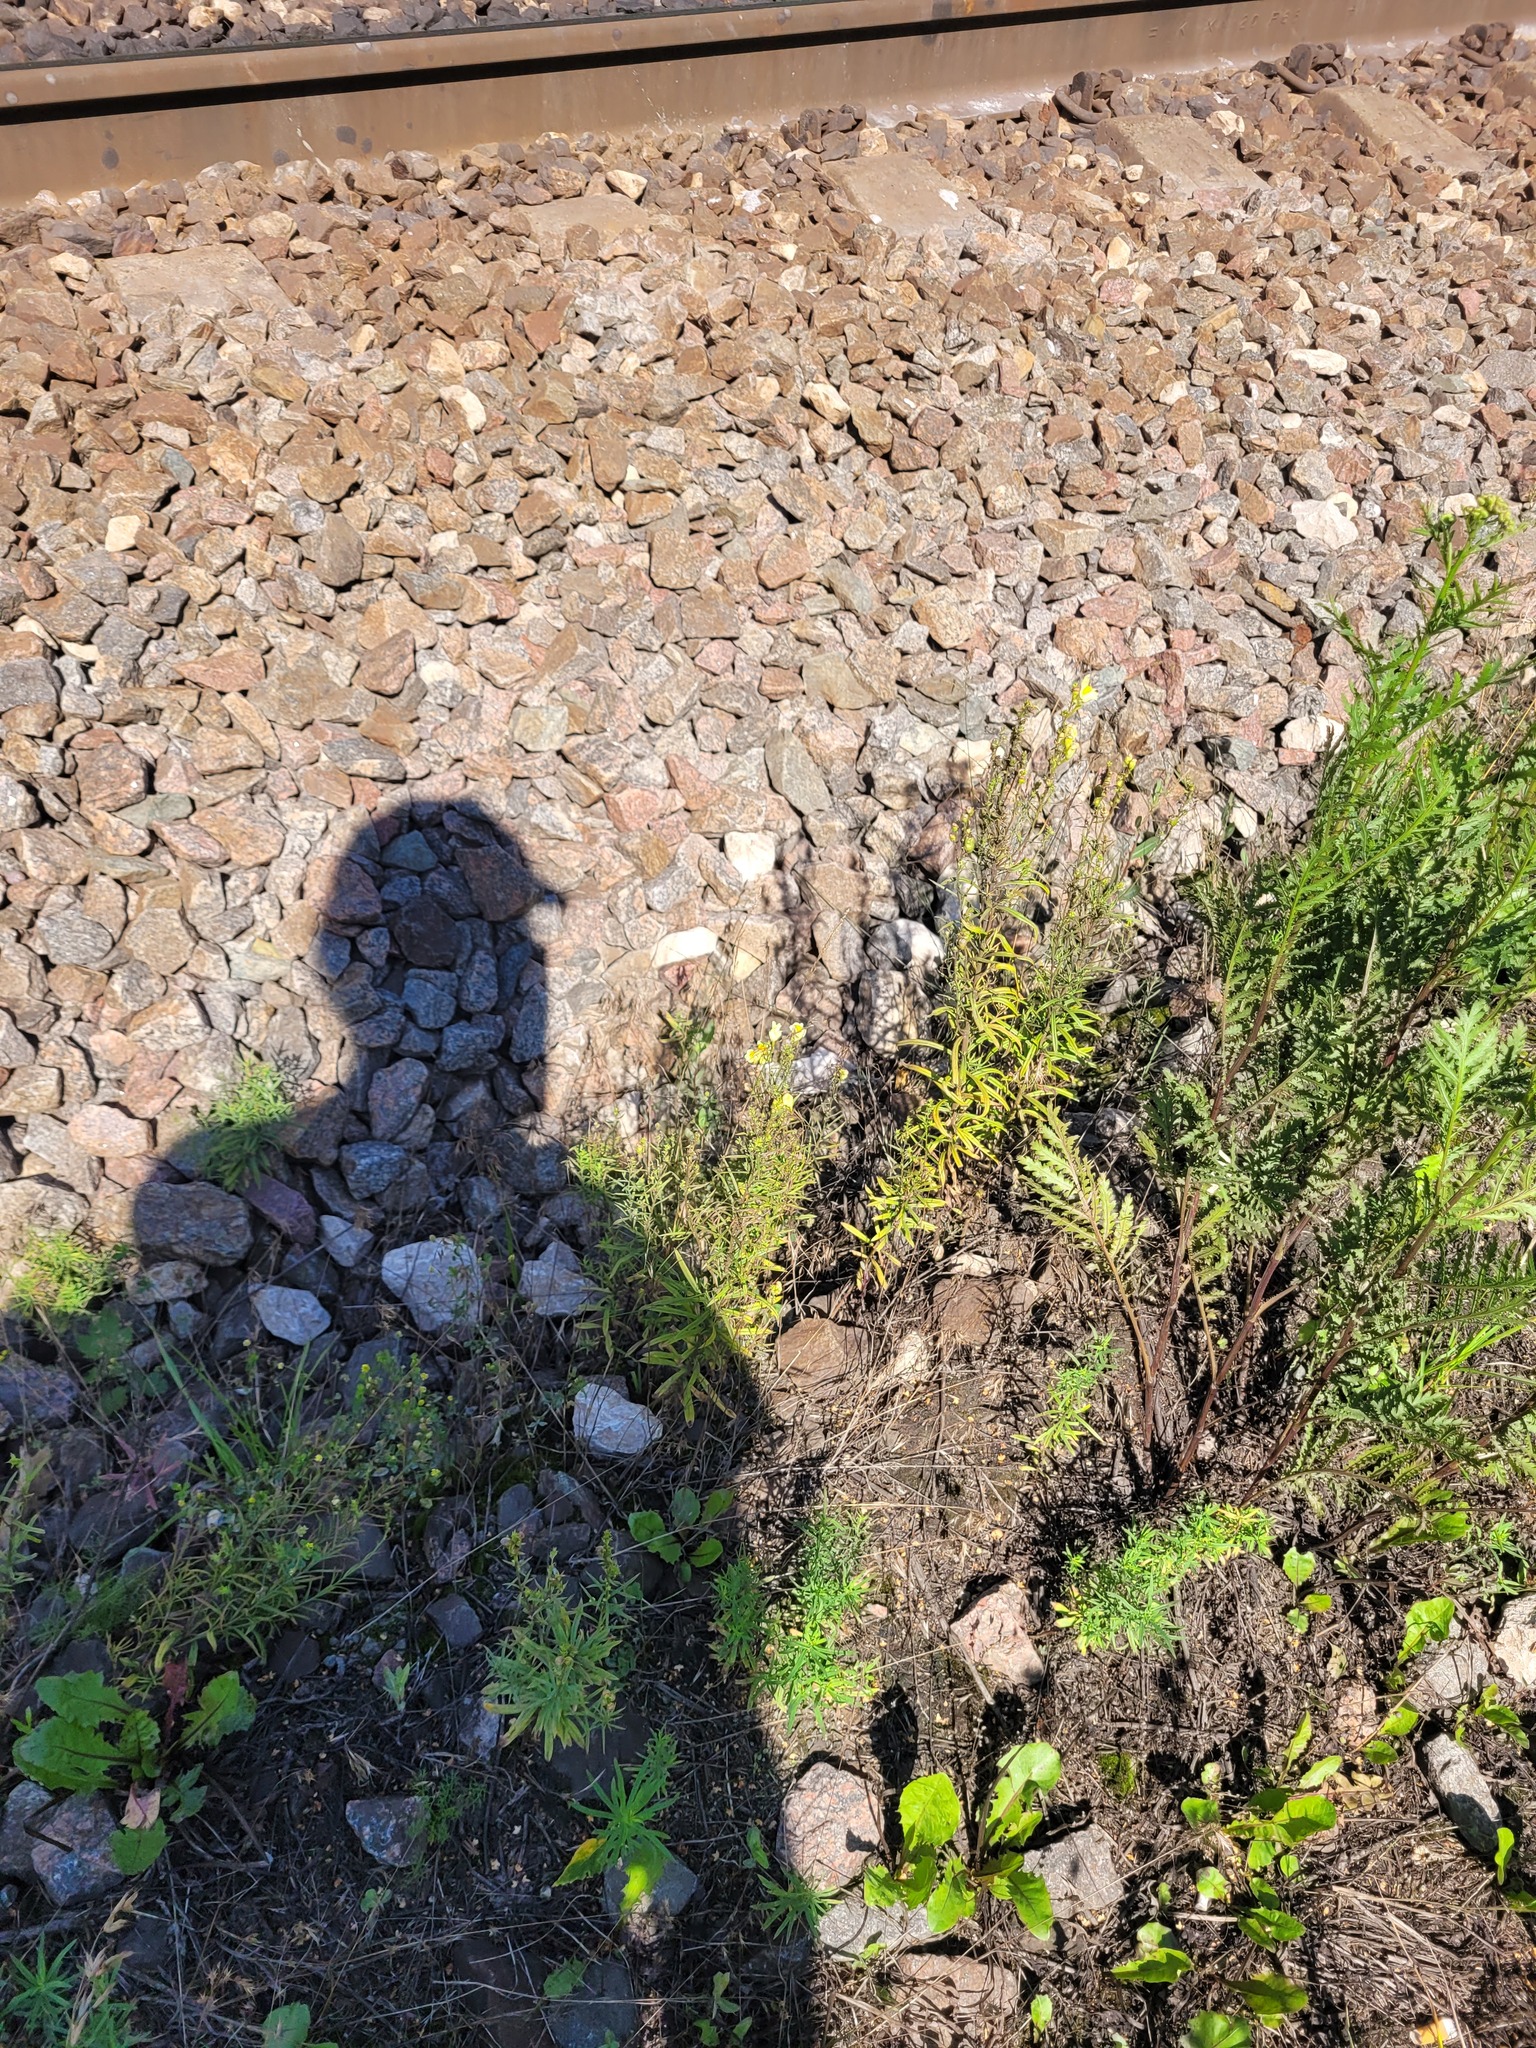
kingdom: Plantae
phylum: Tracheophyta
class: Magnoliopsida
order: Lamiales
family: Plantaginaceae
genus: Linaria
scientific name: Linaria vulgaris
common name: Butter and eggs
